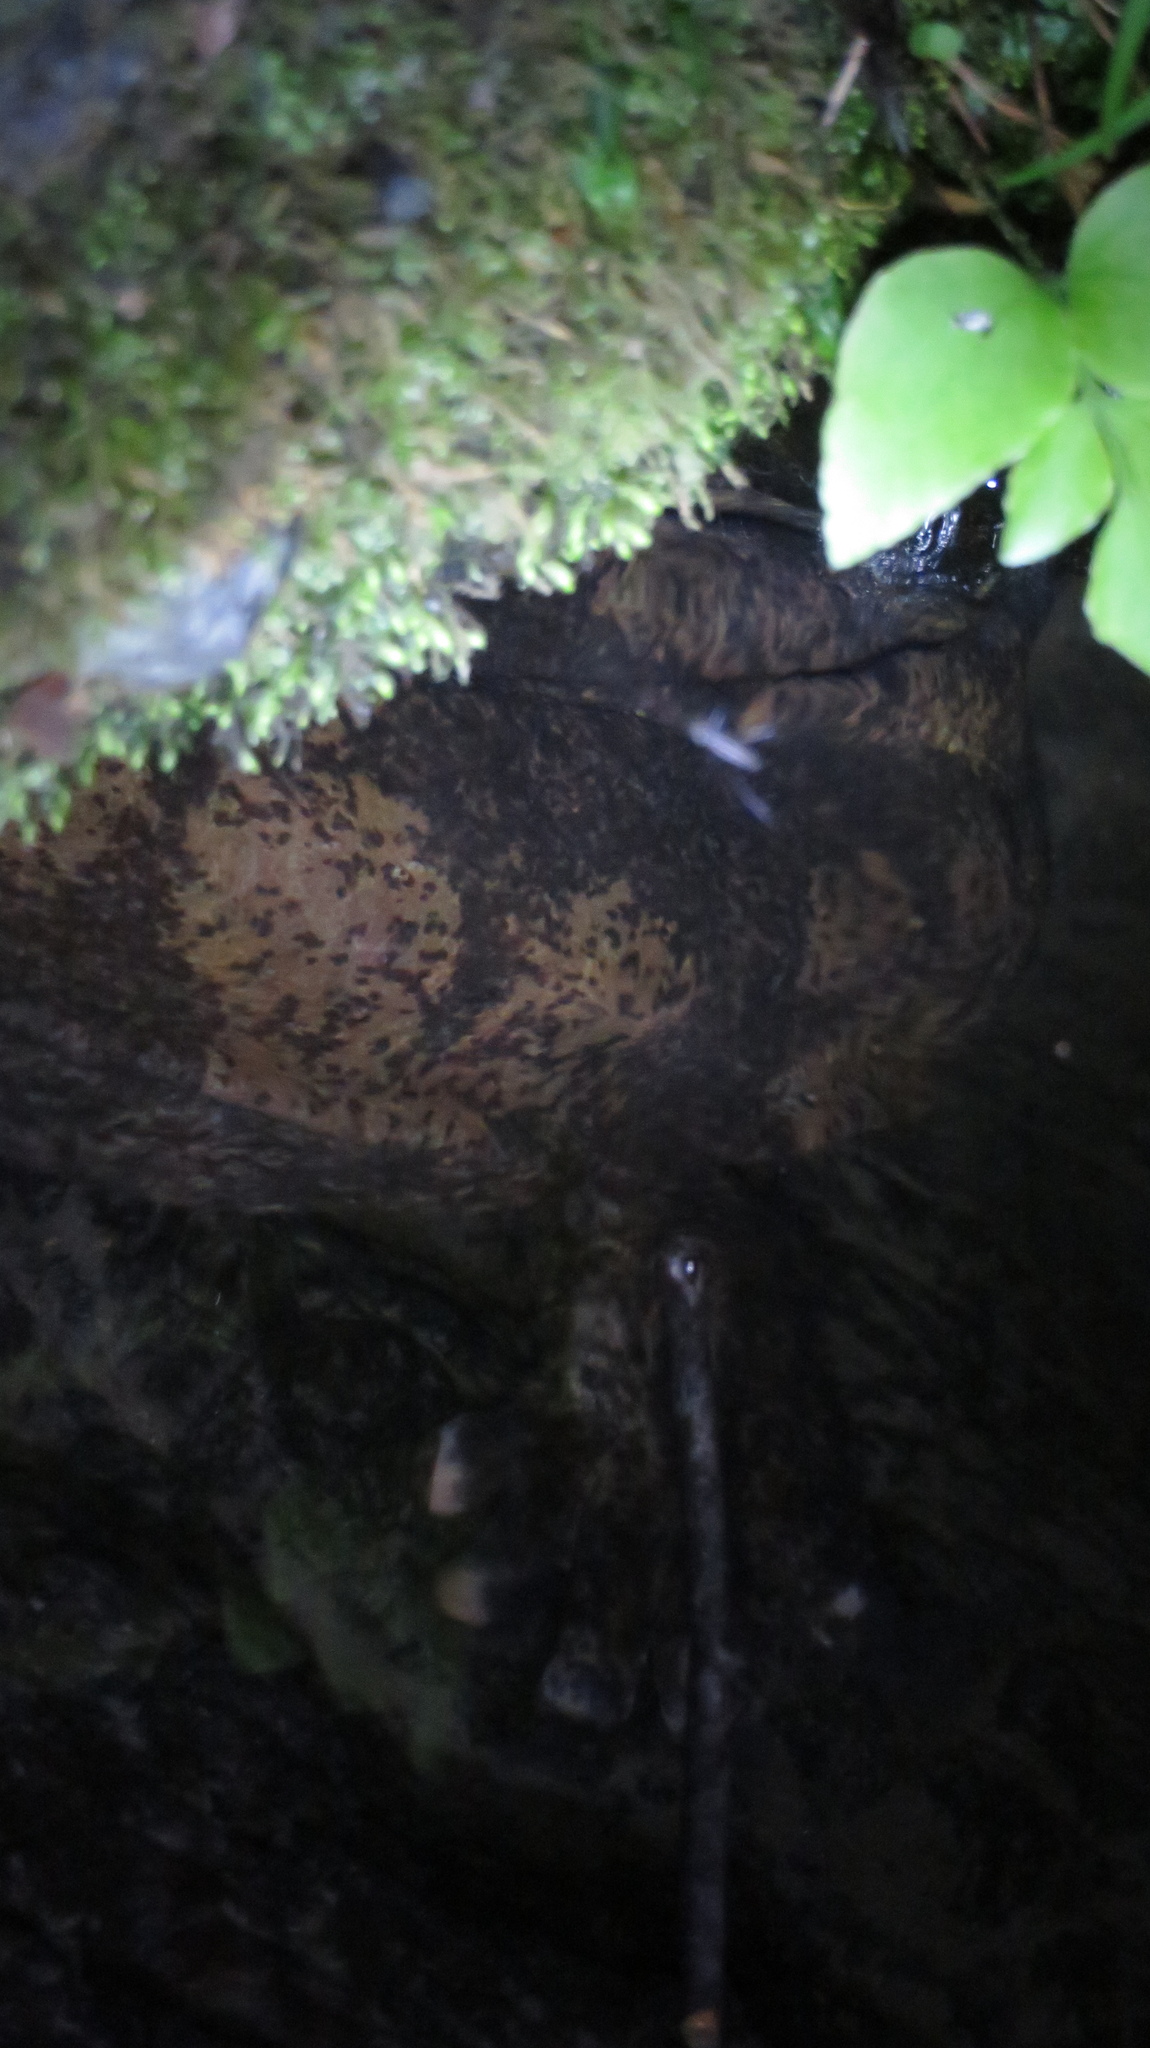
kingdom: Animalia
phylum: Chordata
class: Amphibia
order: Caudata
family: Cryptobranchidae
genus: Andrias
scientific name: Andrias japonicus
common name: Japanese giant salamander
